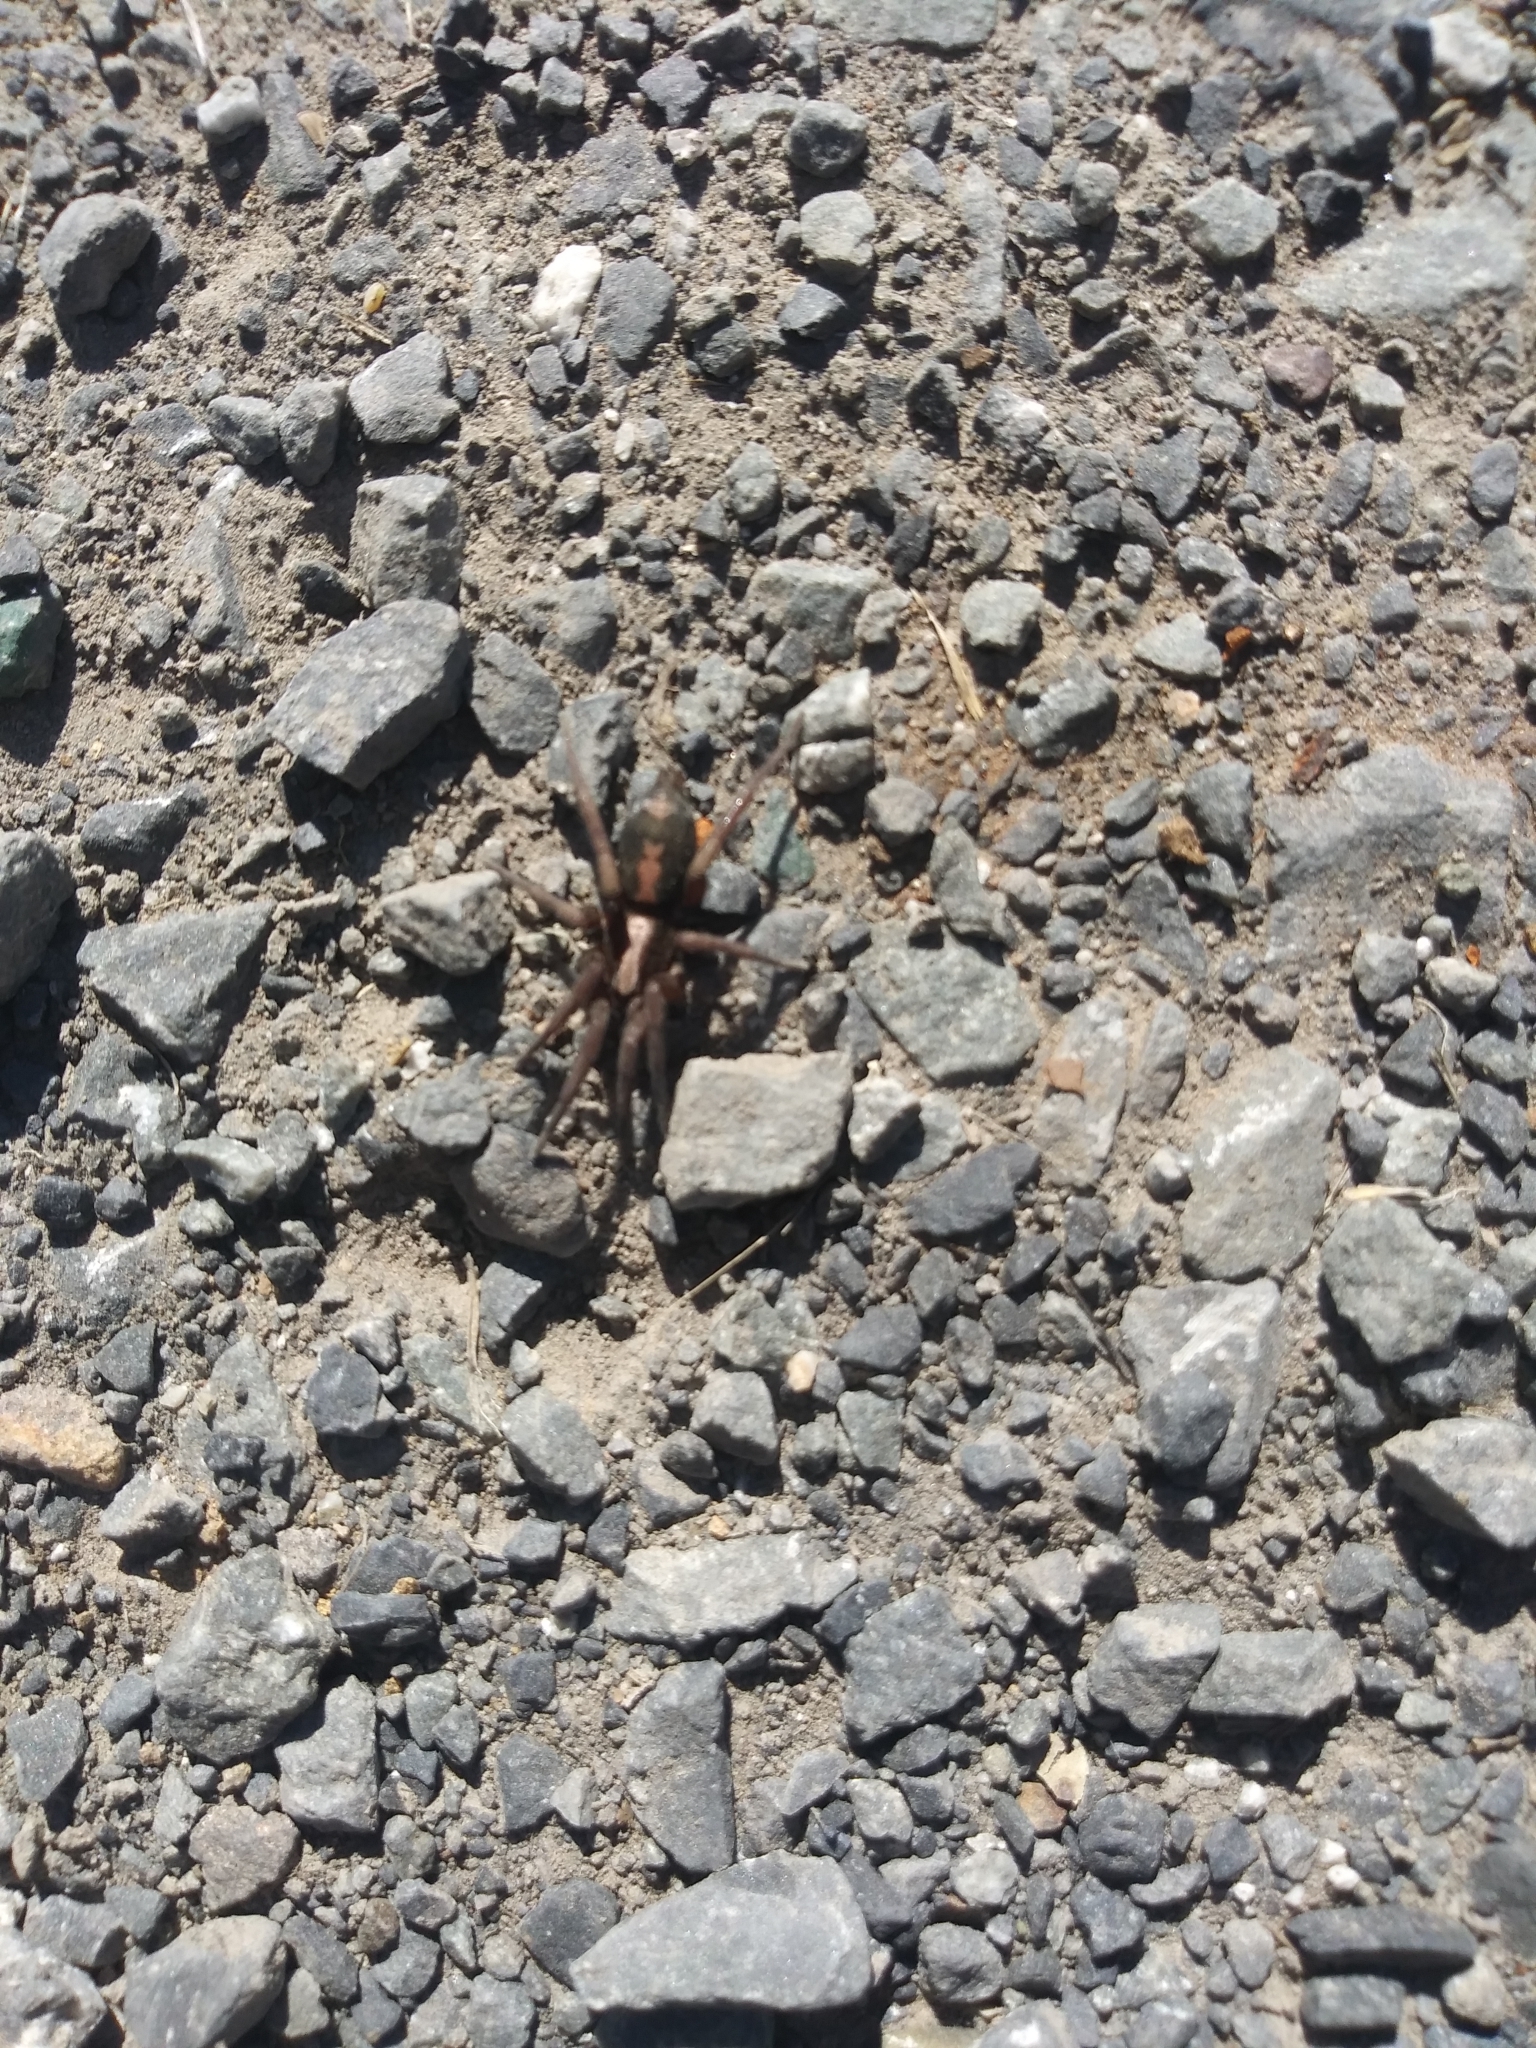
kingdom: Animalia
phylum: Arthropoda
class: Arachnida
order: Araneae
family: Gnaphosidae
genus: Herpyllus
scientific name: Herpyllus propinquus
